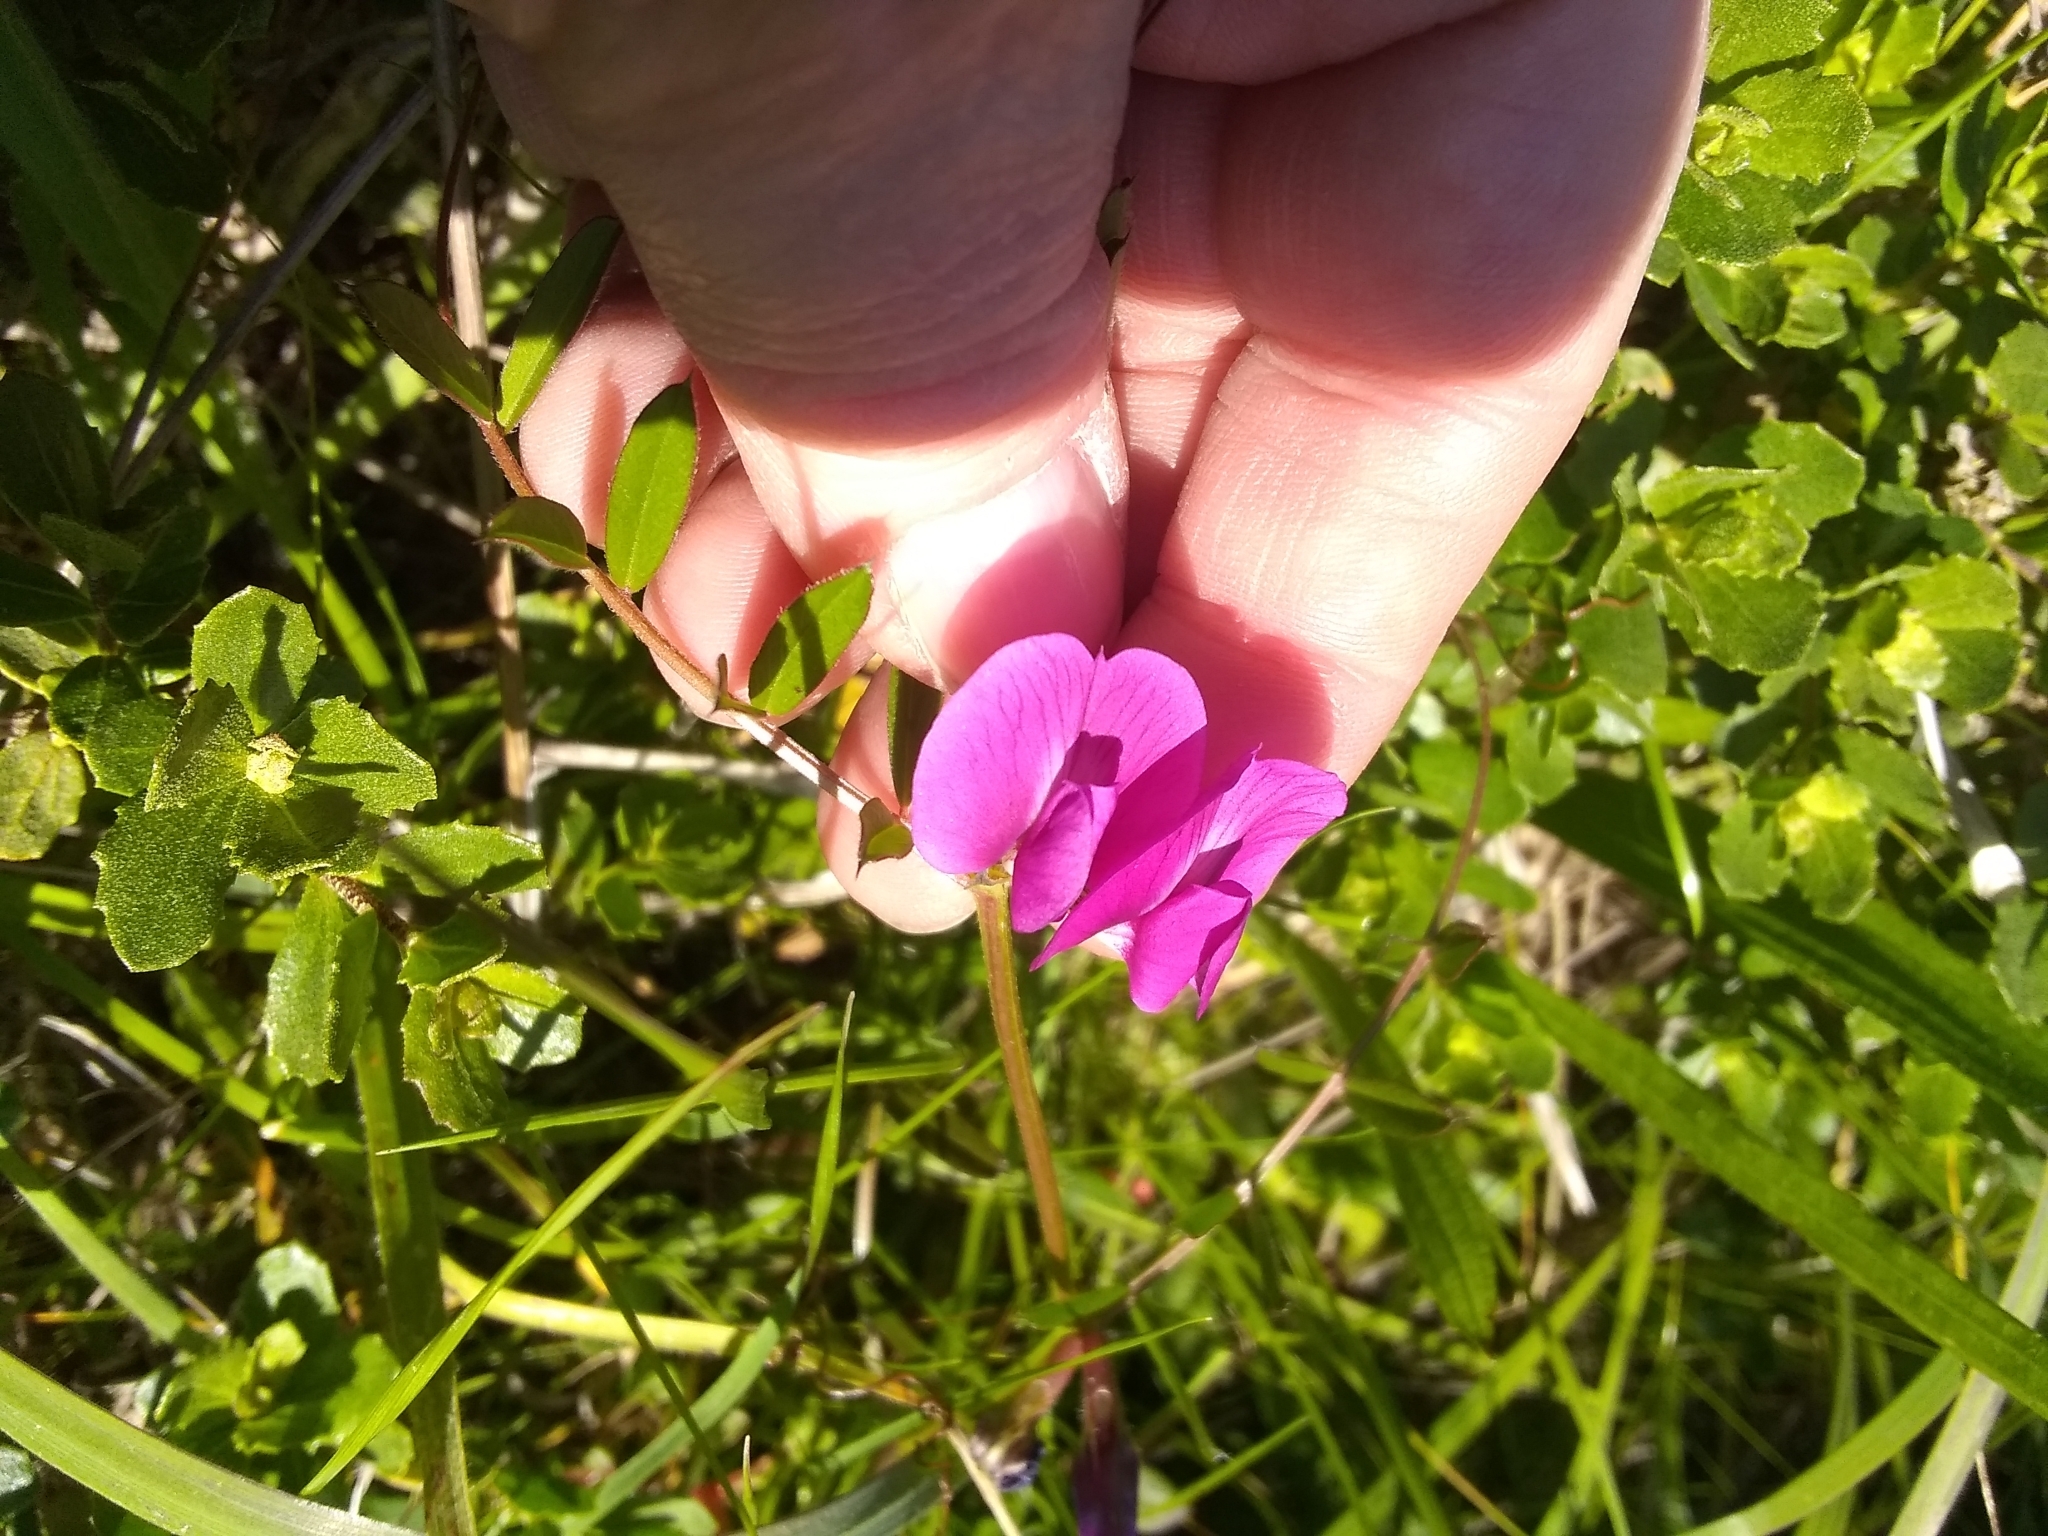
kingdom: Plantae
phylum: Tracheophyta
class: Magnoliopsida
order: Fabales
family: Fabaceae
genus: Vicia
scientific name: Vicia sativa
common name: Garden vetch
